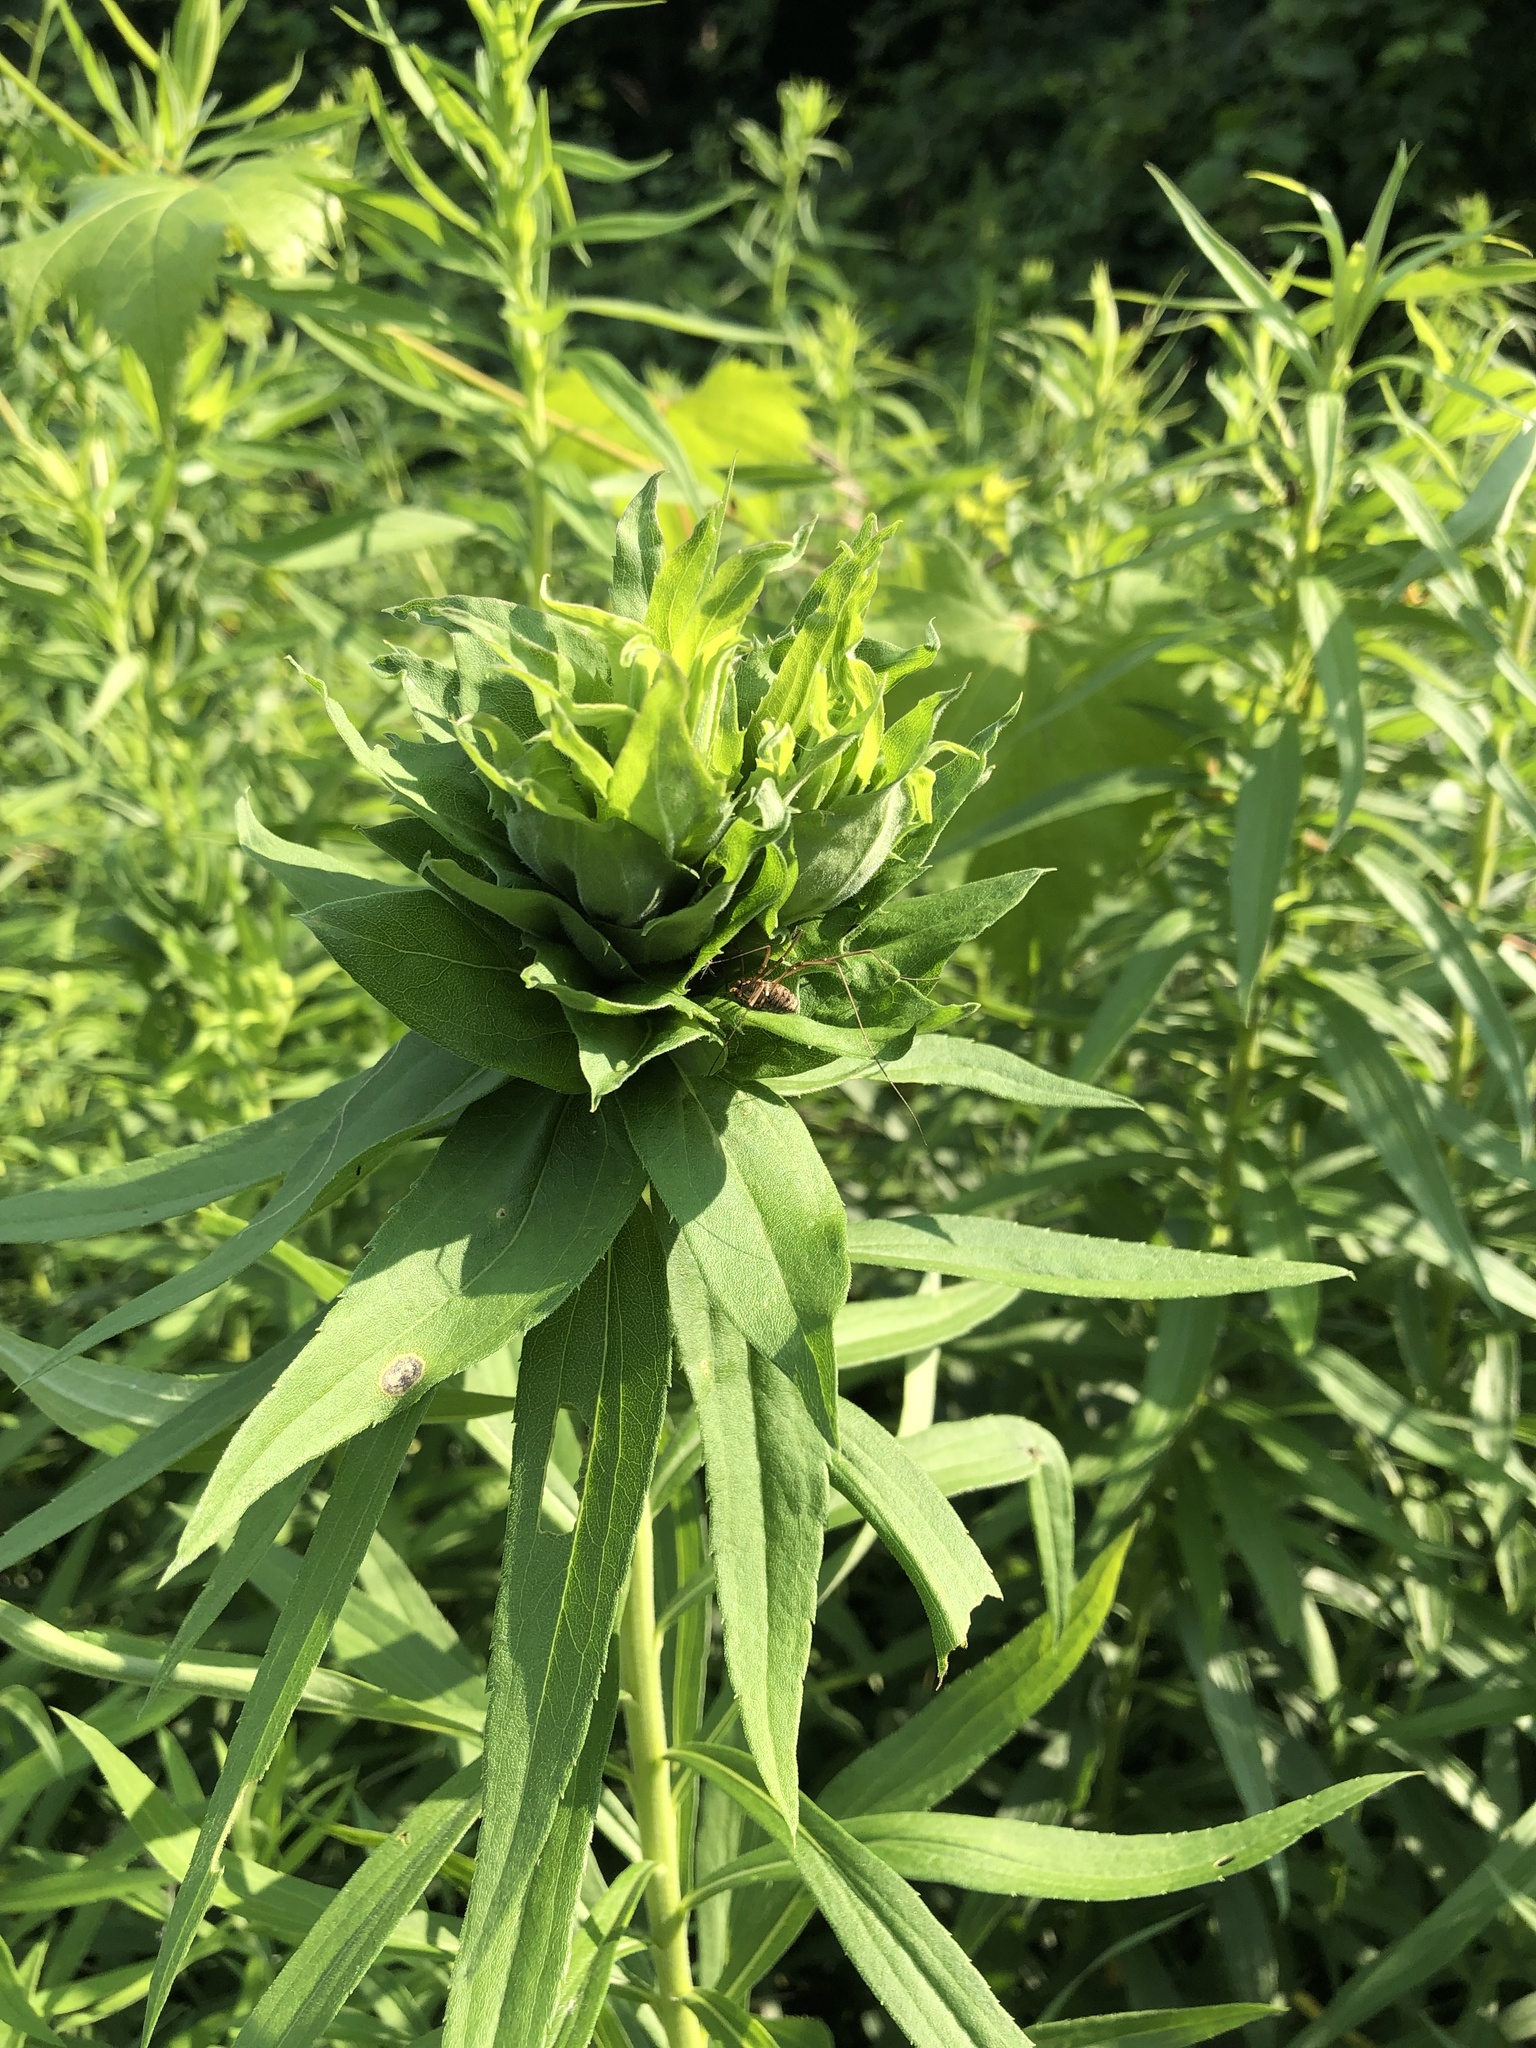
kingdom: Animalia
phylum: Arthropoda
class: Insecta
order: Diptera
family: Cecidomyiidae
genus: Rhopalomyia
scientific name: Rhopalomyia solidaginis
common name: Goldenrod bunch gall midge
